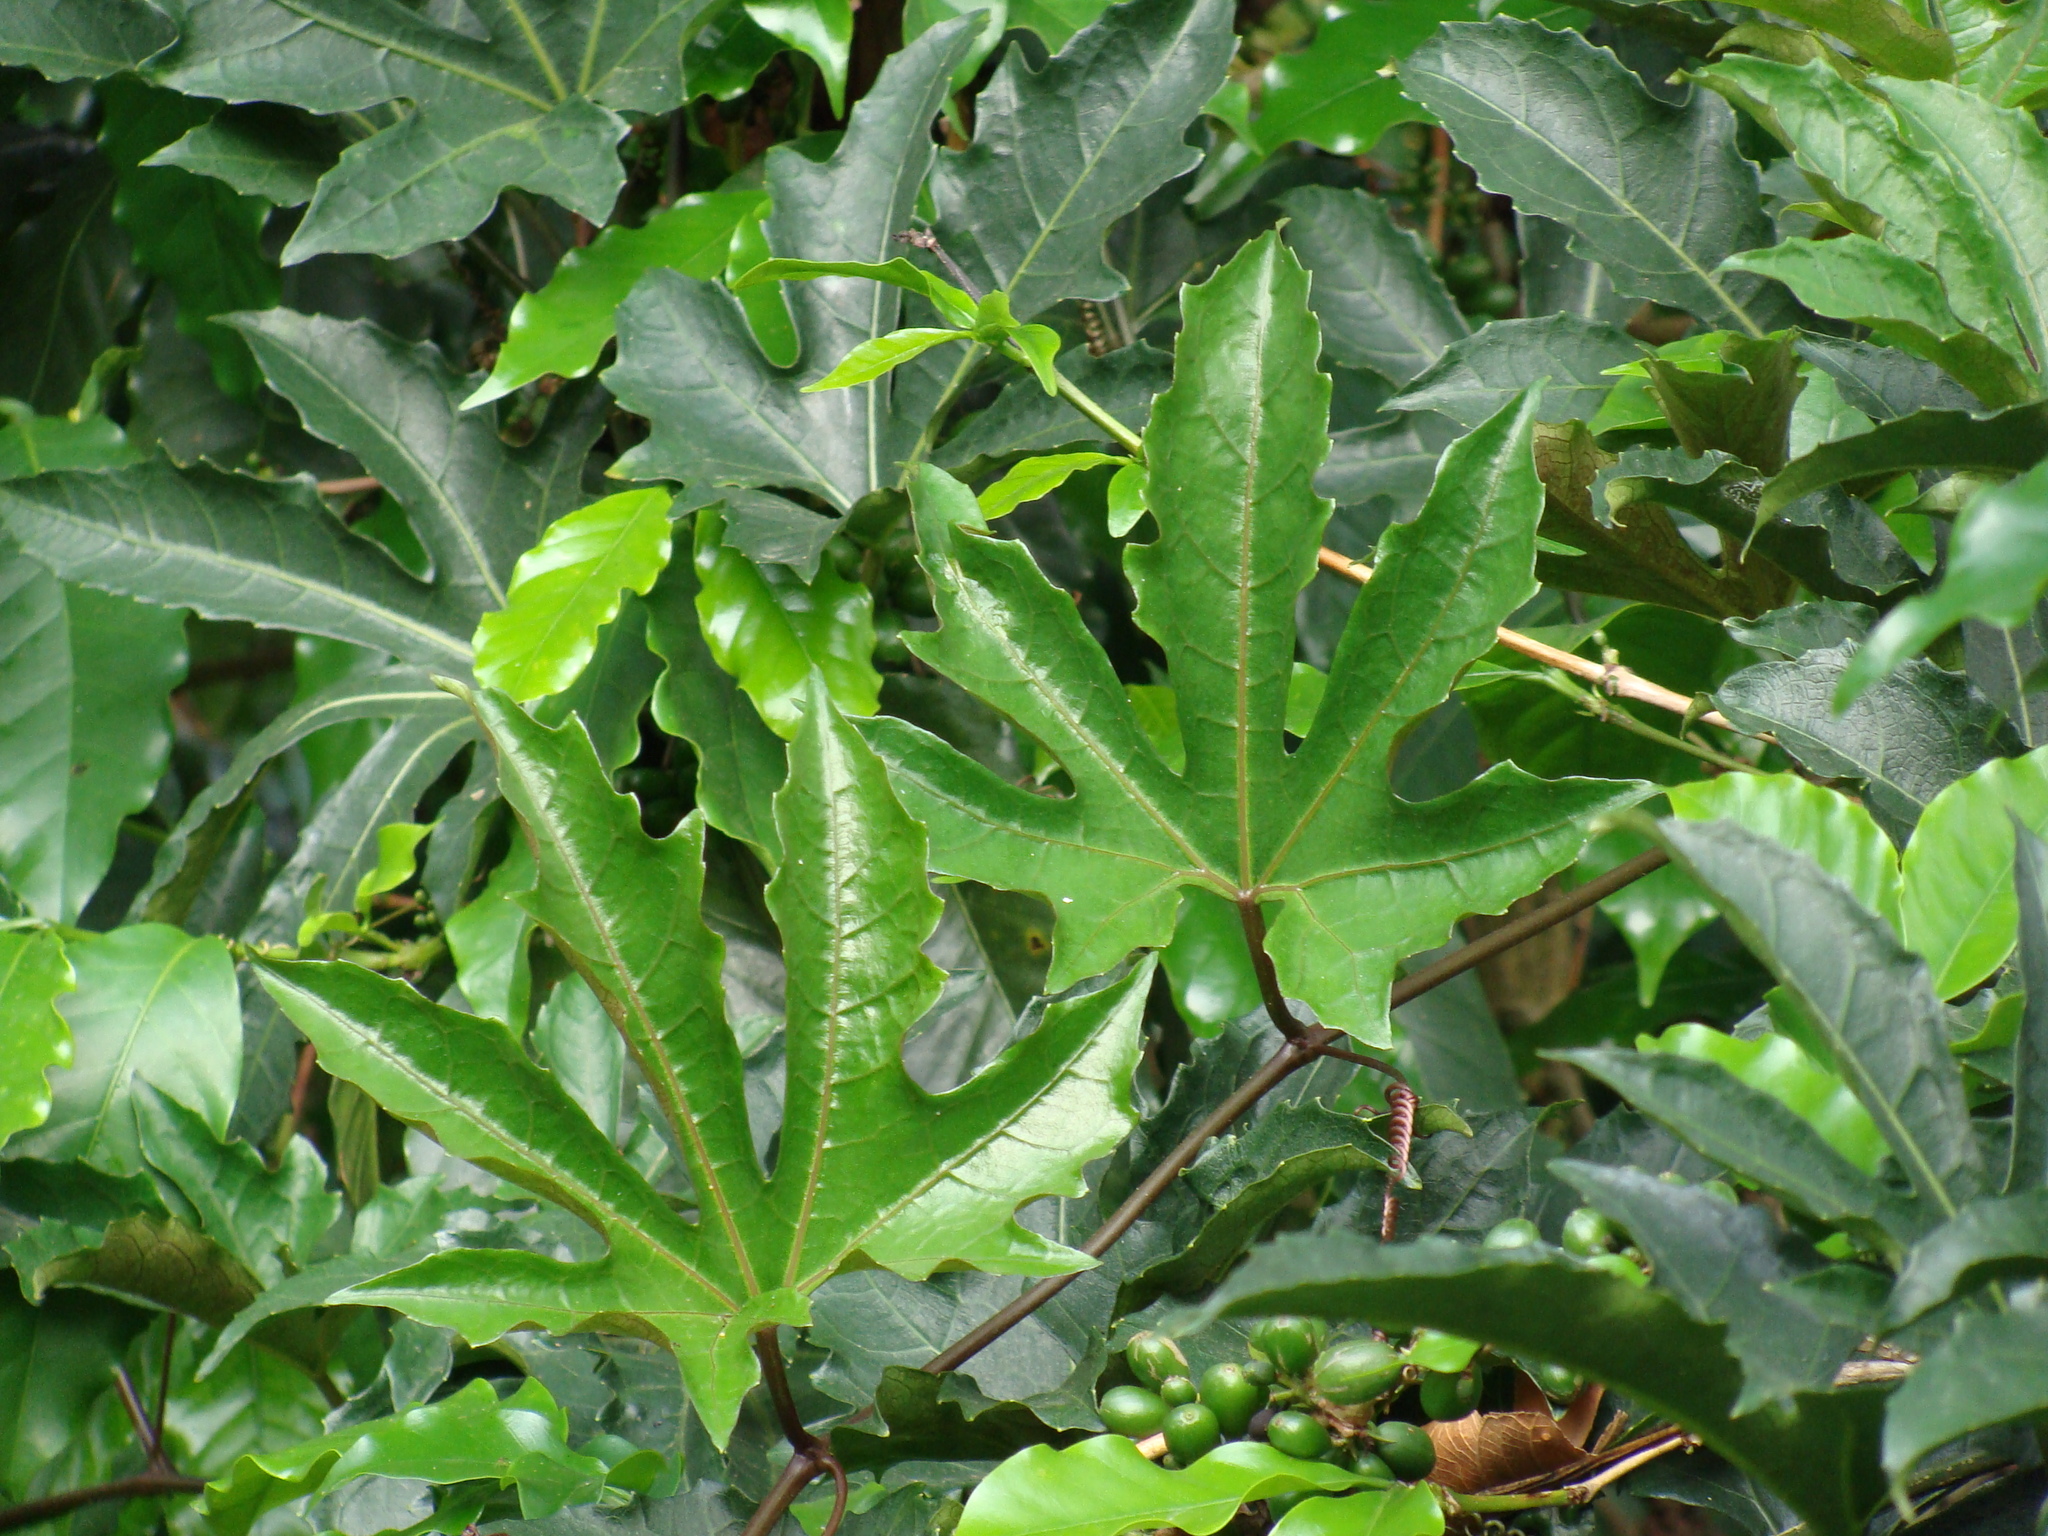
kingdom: Plantae
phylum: Tracheophyta
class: Magnoliopsida
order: Cucurbitales
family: Cucurbitaceae
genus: Cayaponia
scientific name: Cayaponia longiloba
